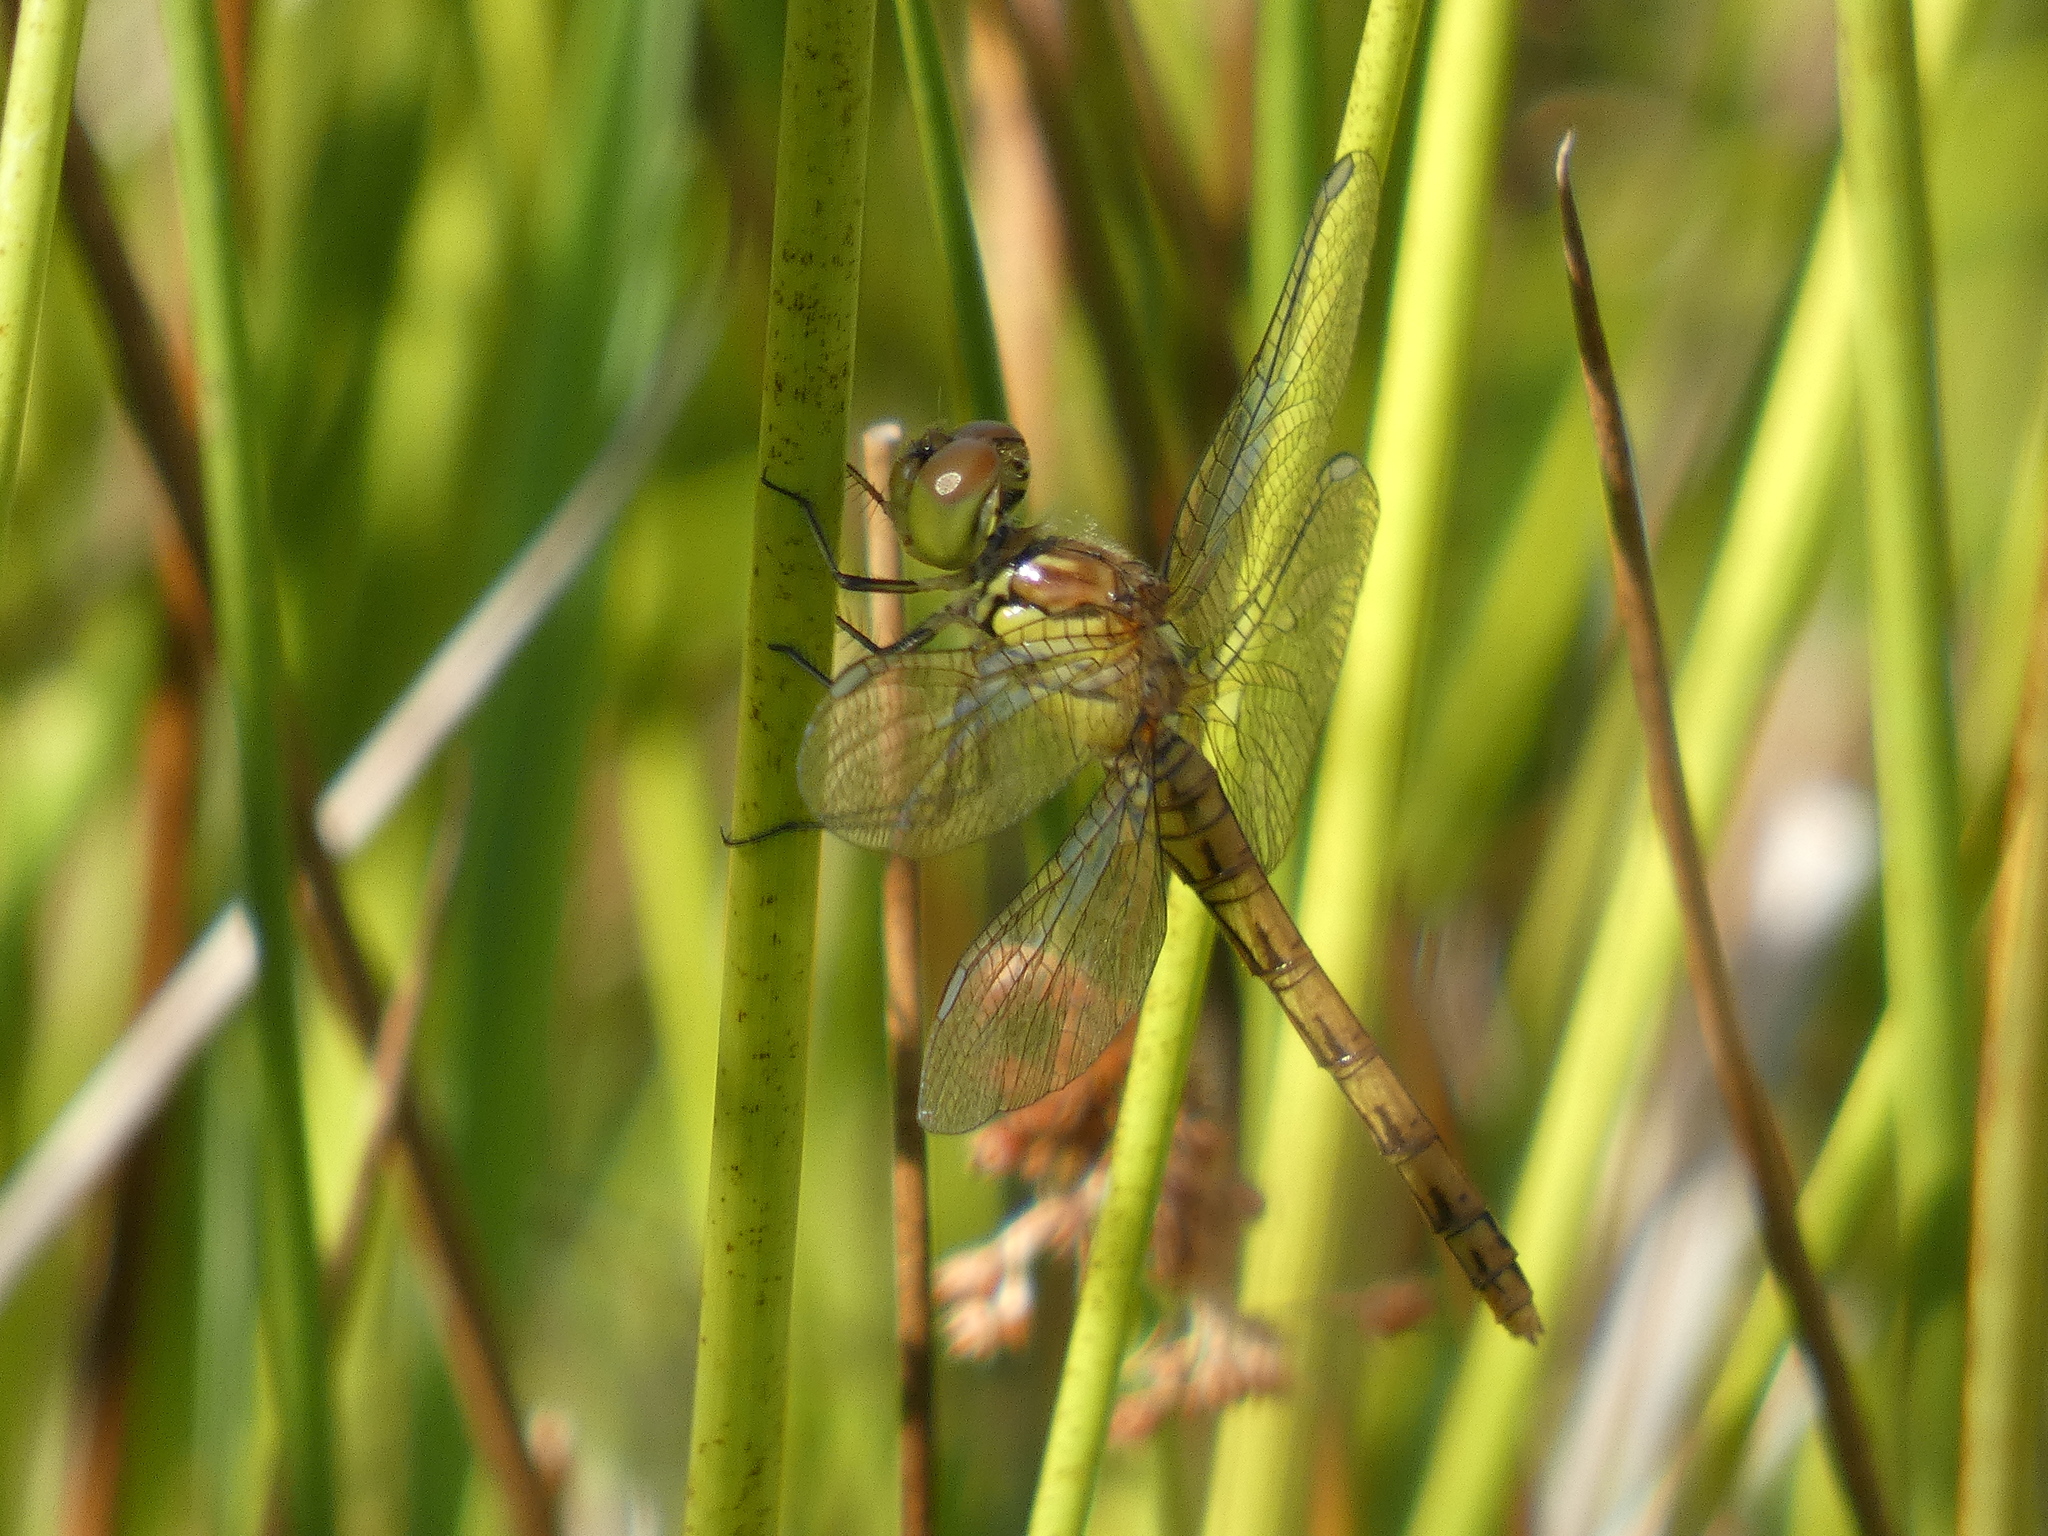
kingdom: Animalia
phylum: Arthropoda
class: Insecta
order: Odonata
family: Libellulidae
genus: Sympetrum
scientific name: Sympetrum striolatum
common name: Common darter
